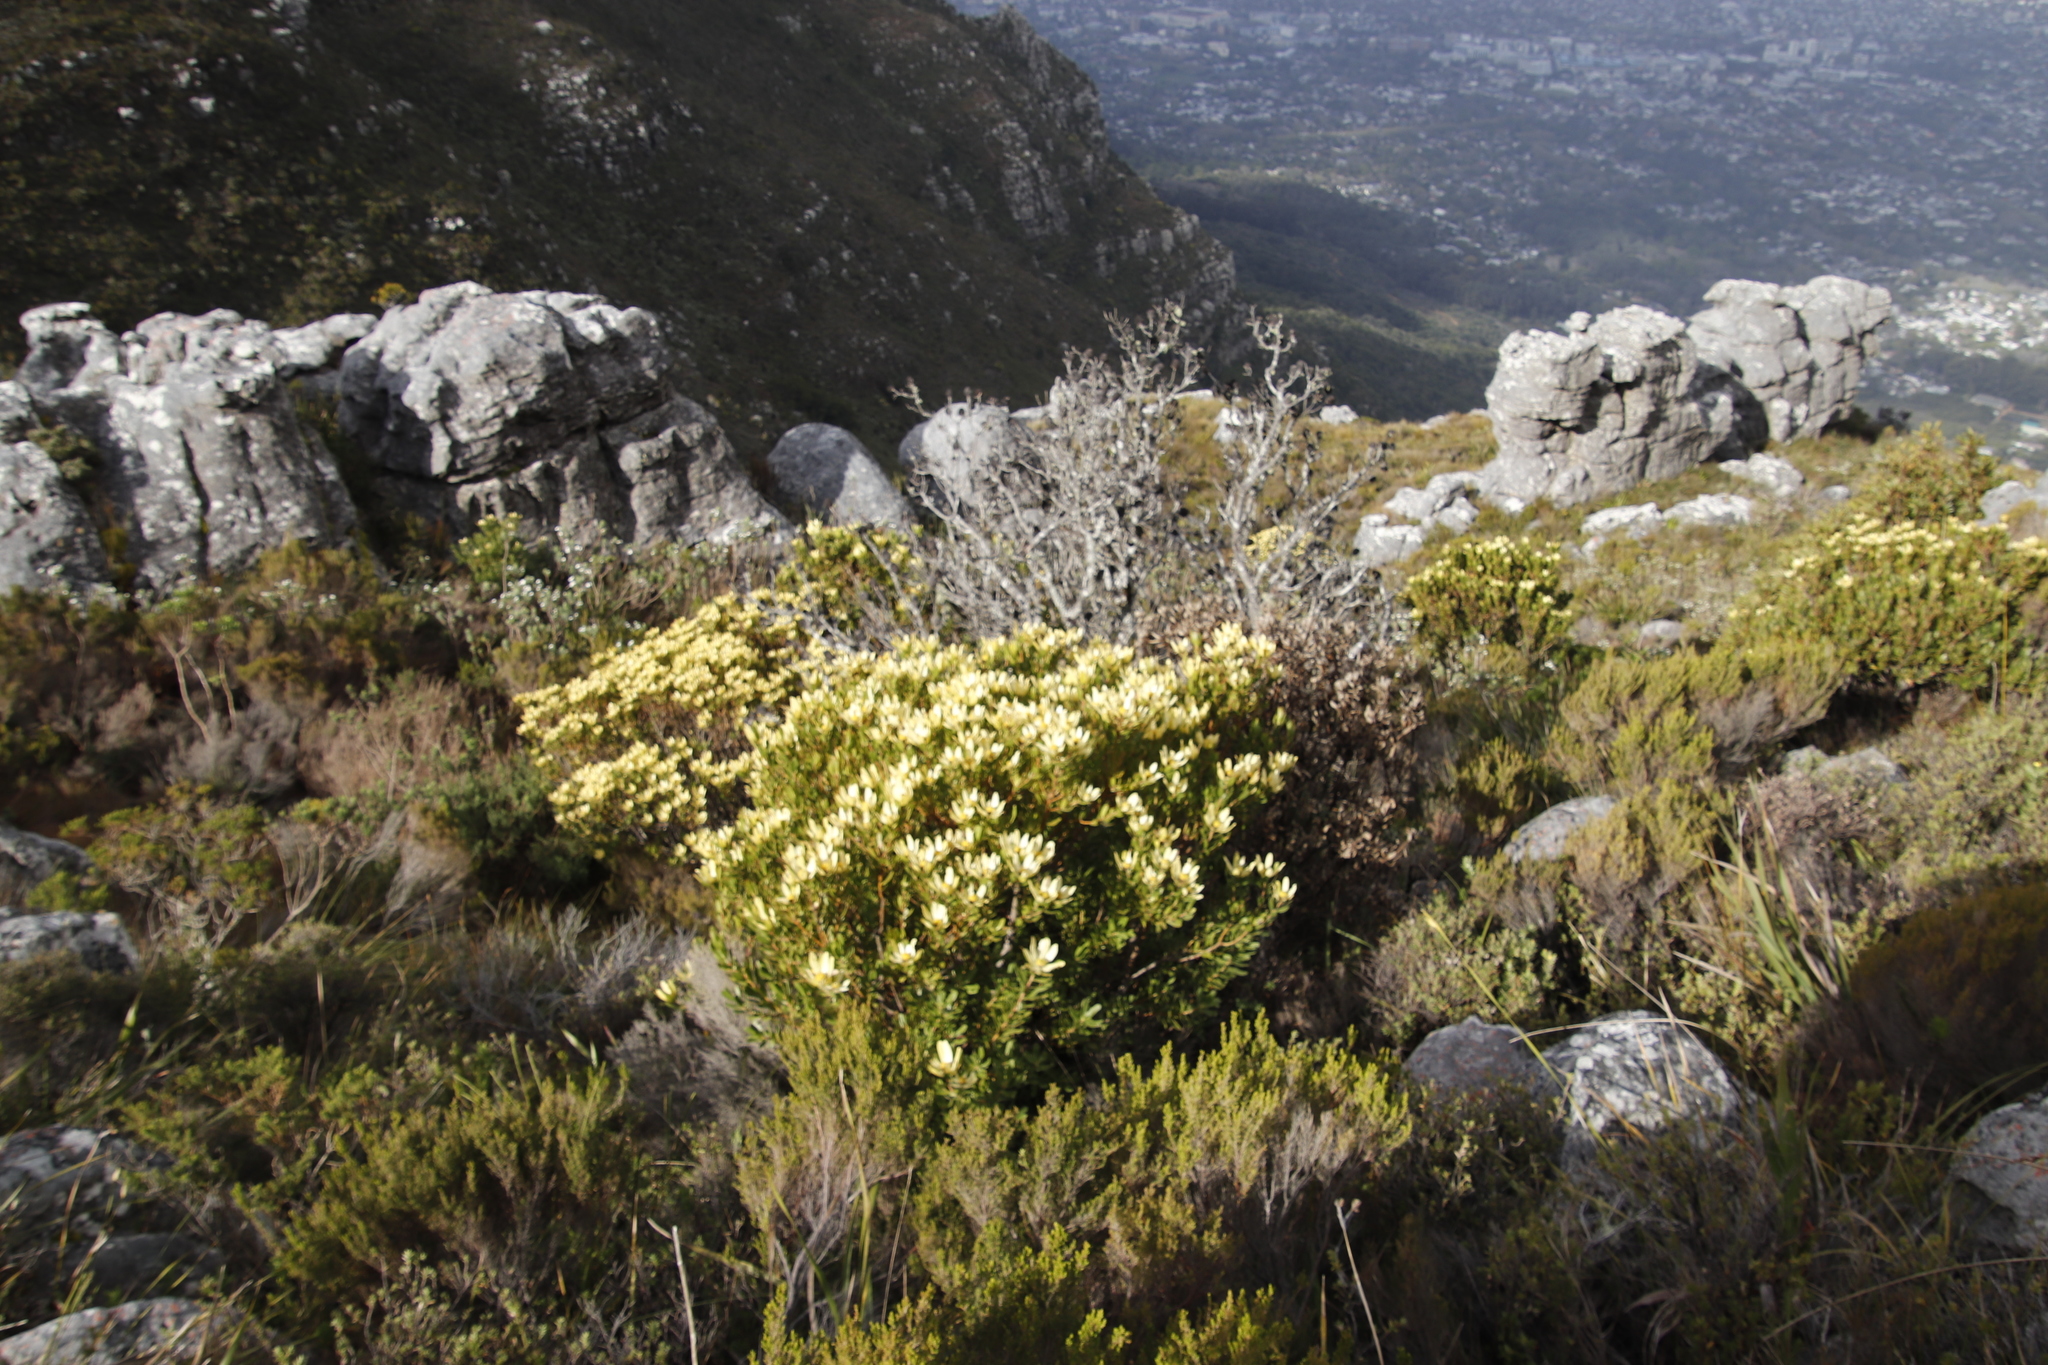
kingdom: Plantae
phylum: Tracheophyta
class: Magnoliopsida
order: Proteales
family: Proteaceae
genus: Leucadendron
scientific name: Leucadendron strobilinum
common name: Mountain rose
